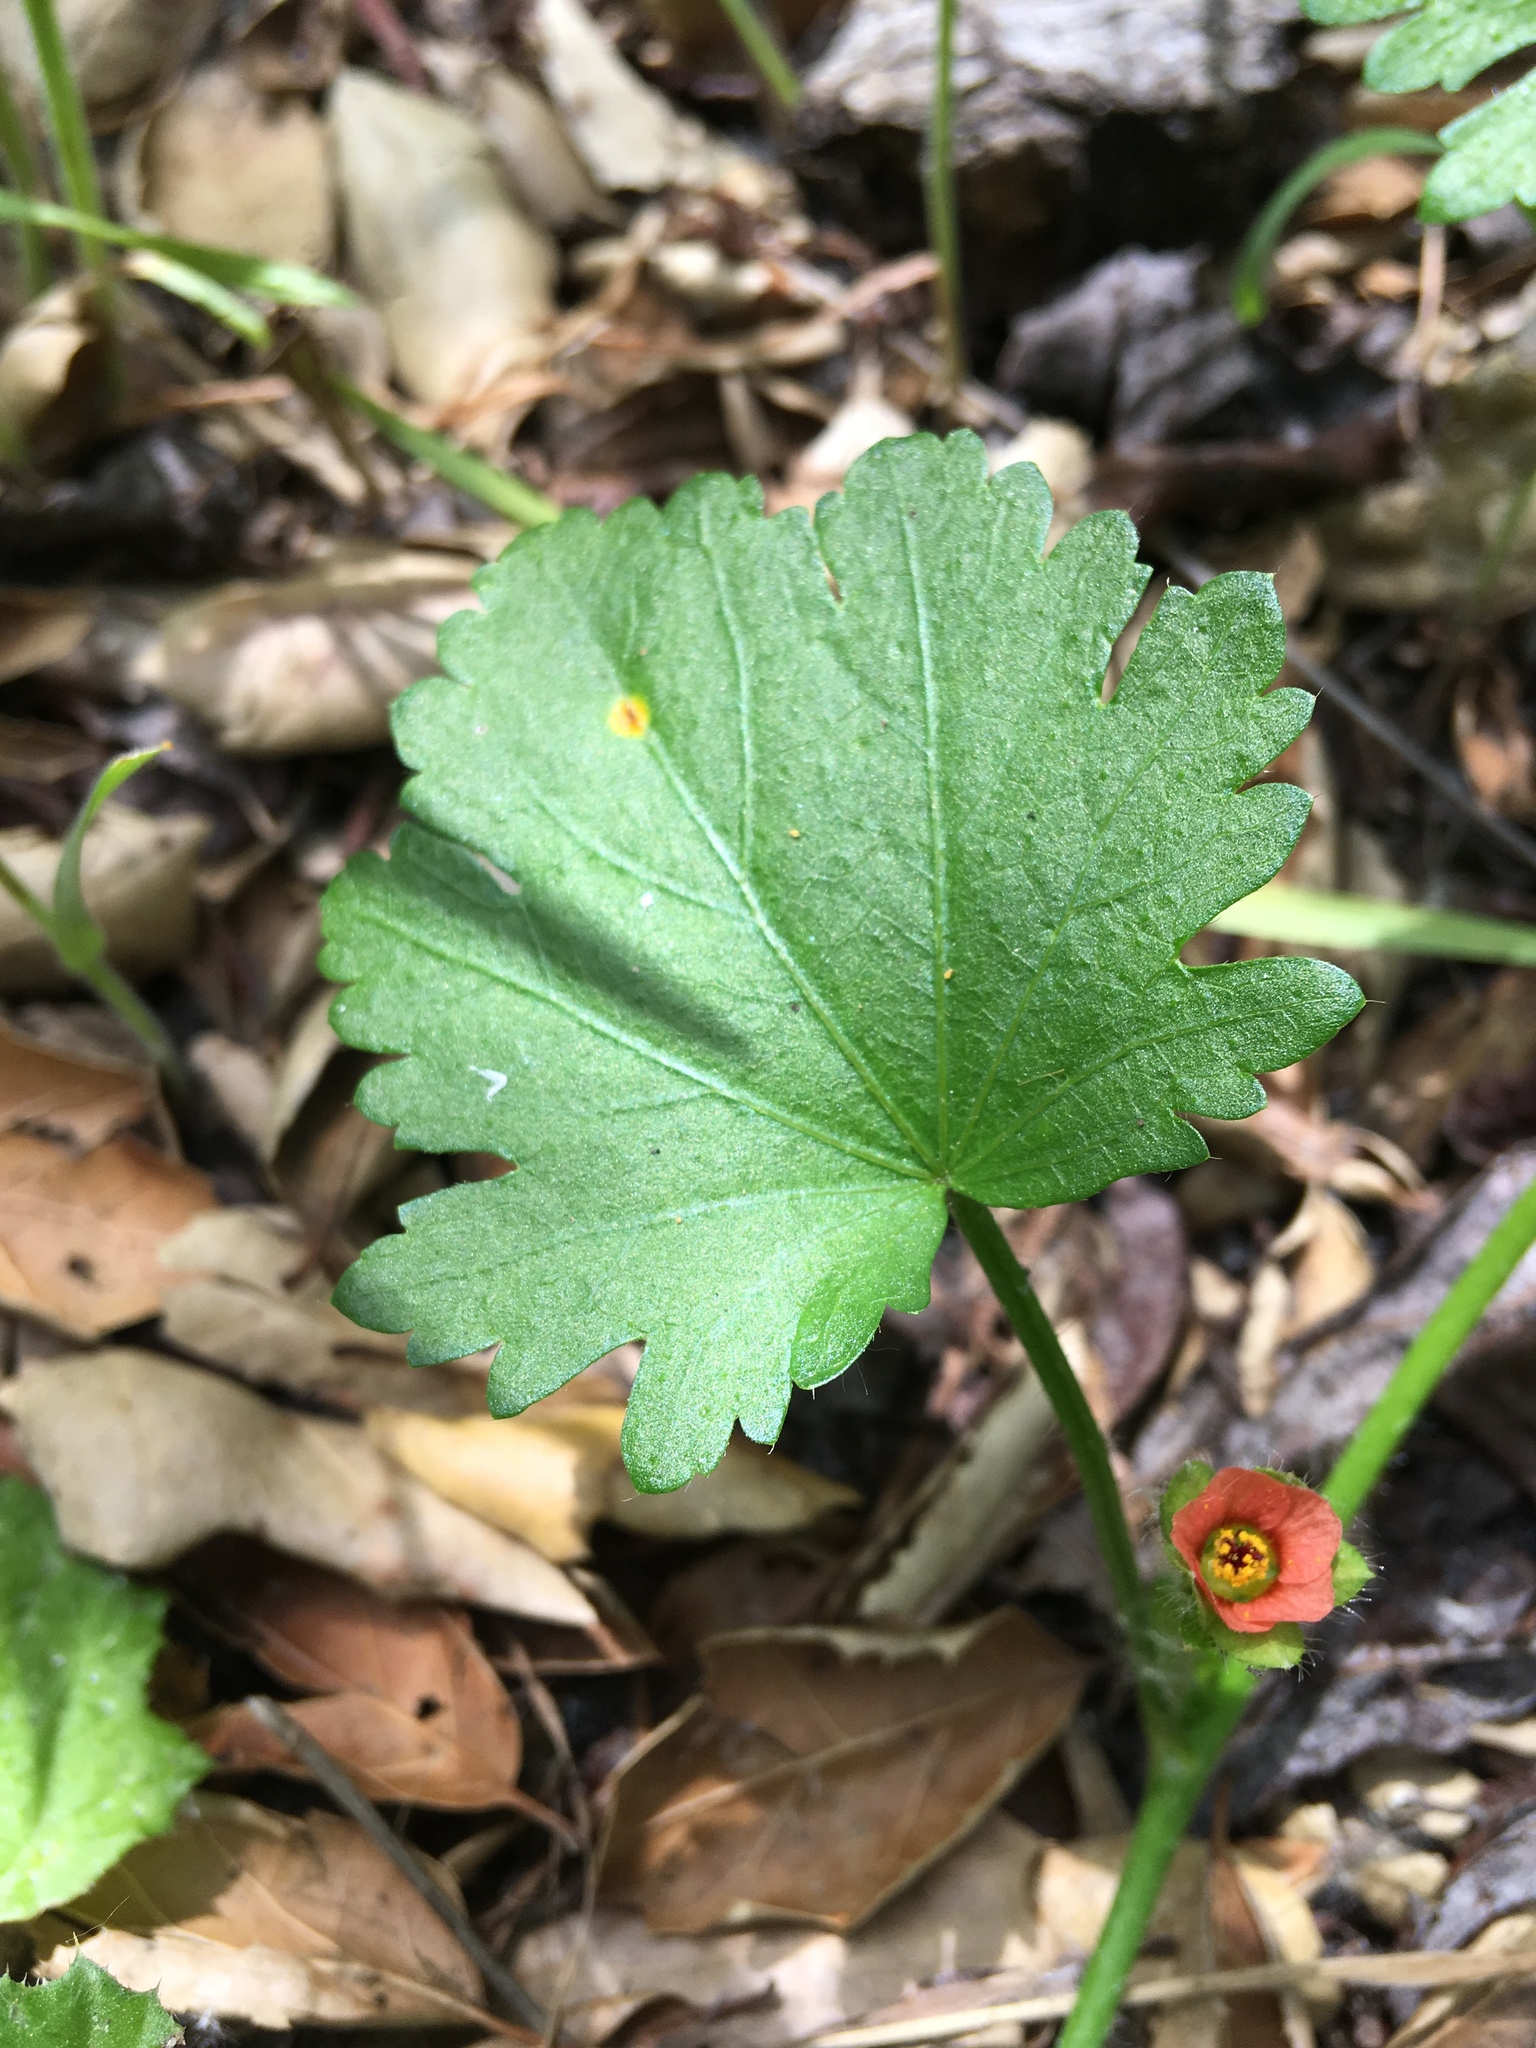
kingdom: Plantae
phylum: Tracheophyta
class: Magnoliopsida
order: Malvales
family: Malvaceae
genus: Modiola
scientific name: Modiola caroliniana
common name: Carolina bristlemallow
